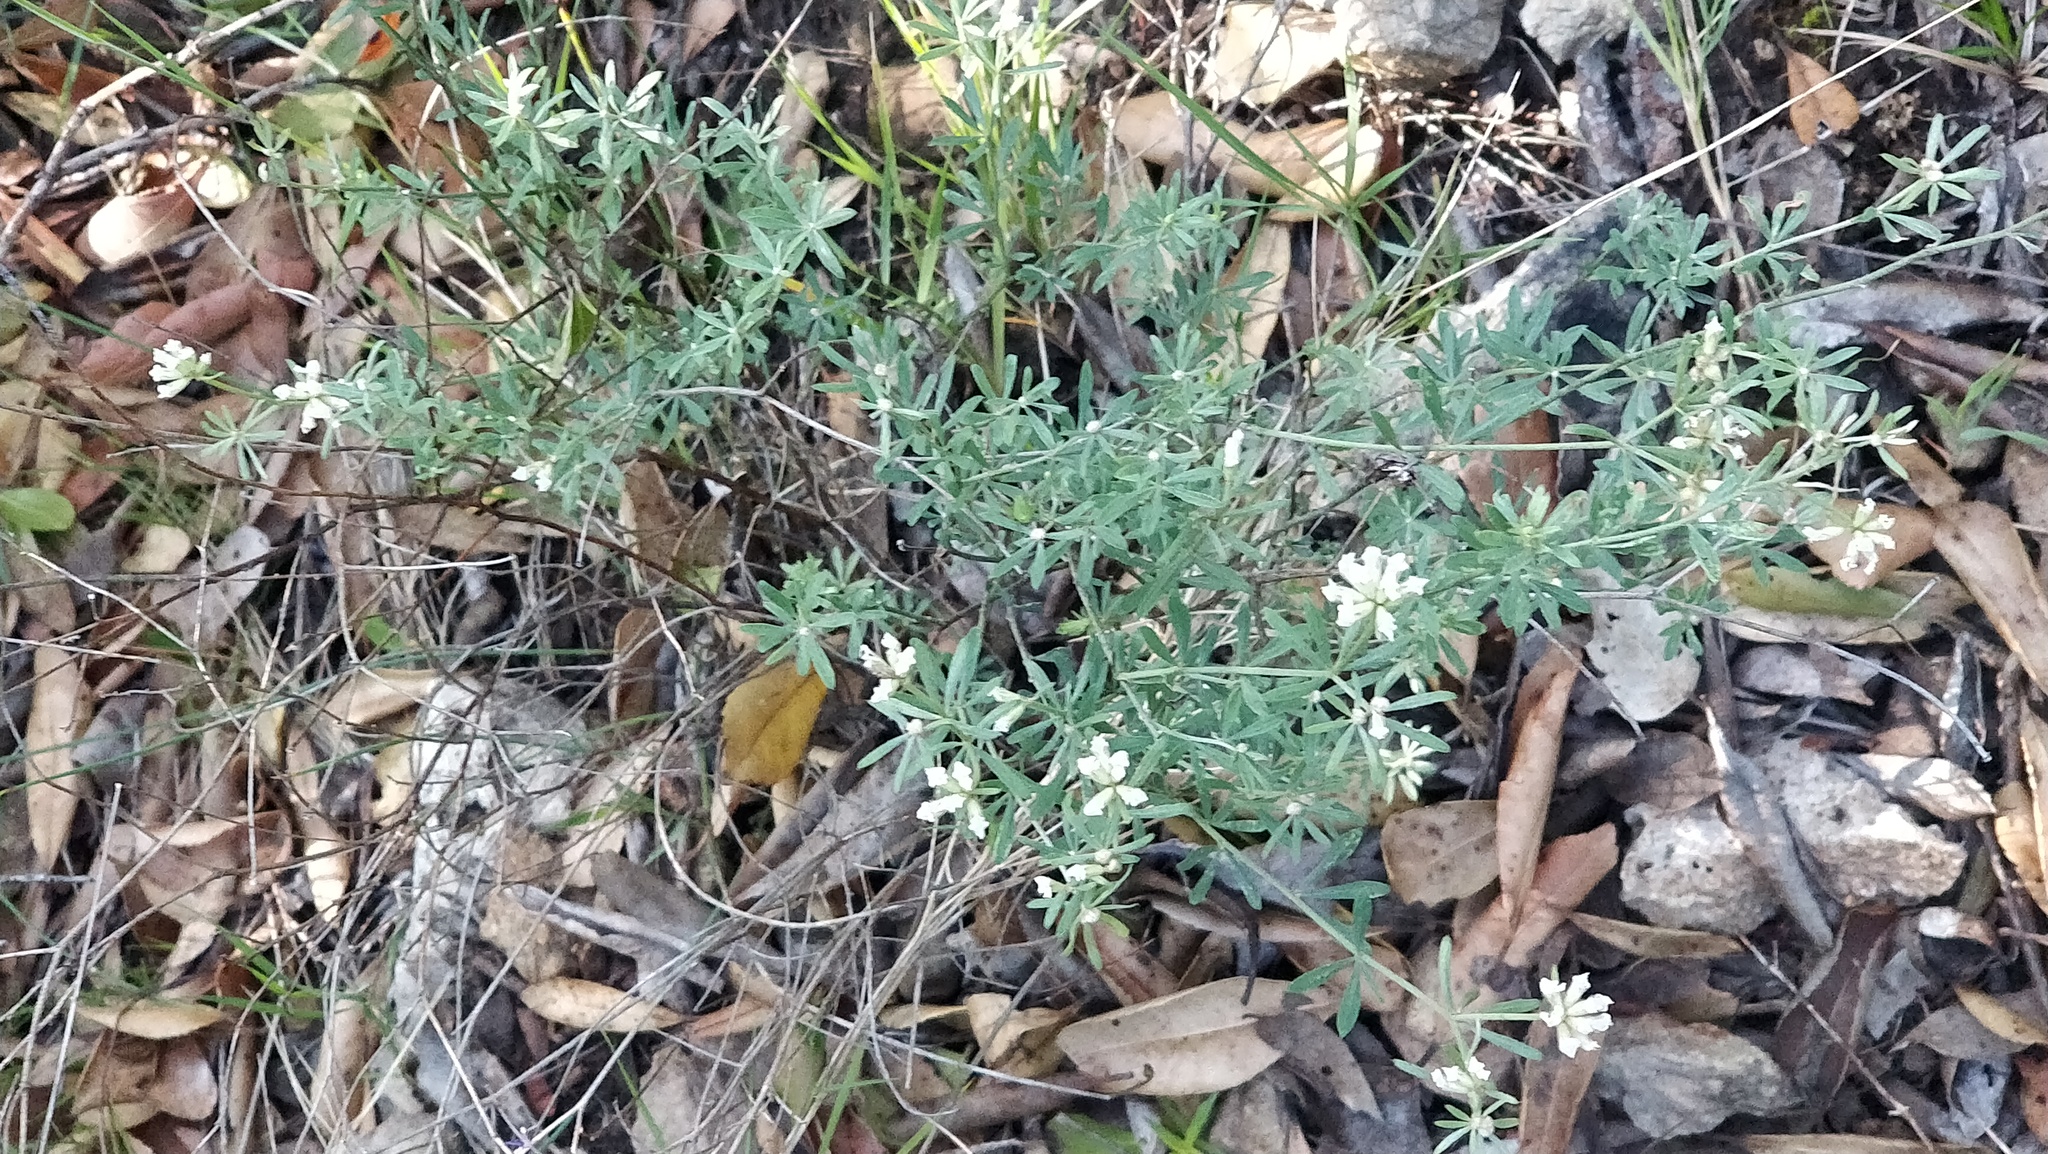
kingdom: Plantae
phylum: Tracheophyta
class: Magnoliopsida
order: Fabales
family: Fabaceae
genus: Lotus
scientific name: Lotus dorycnium
